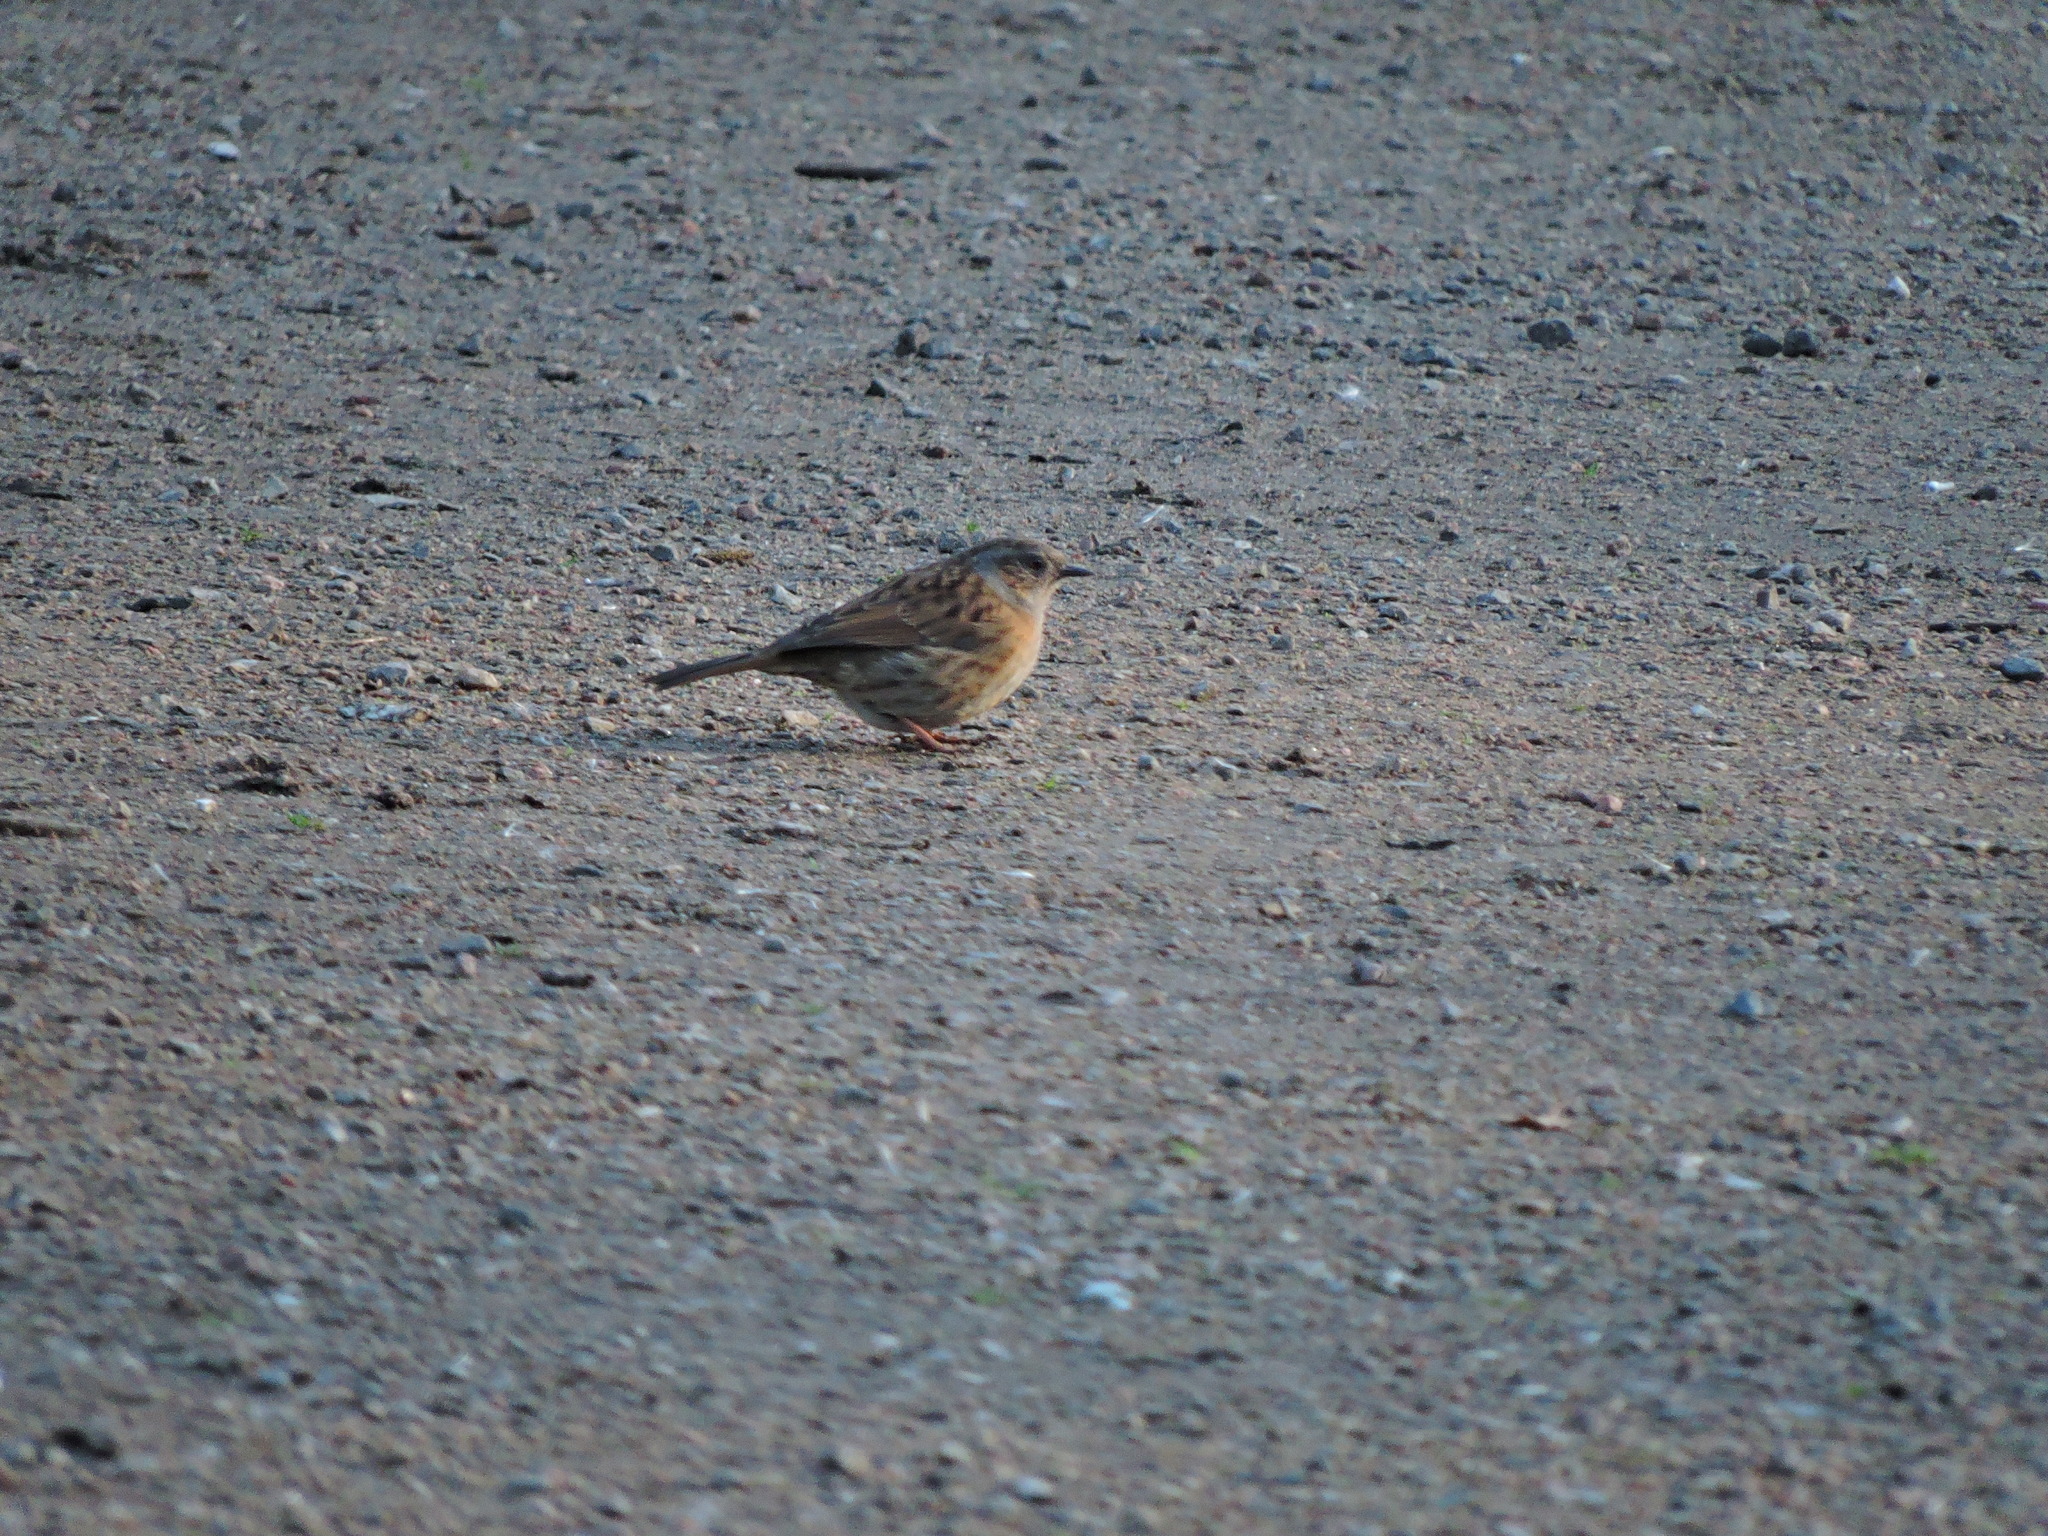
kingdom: Animalia
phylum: Chordata
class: Aves
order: Passeriformes
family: Prunellidae
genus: Prunella
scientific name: Prunella modularis
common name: Dunnock
